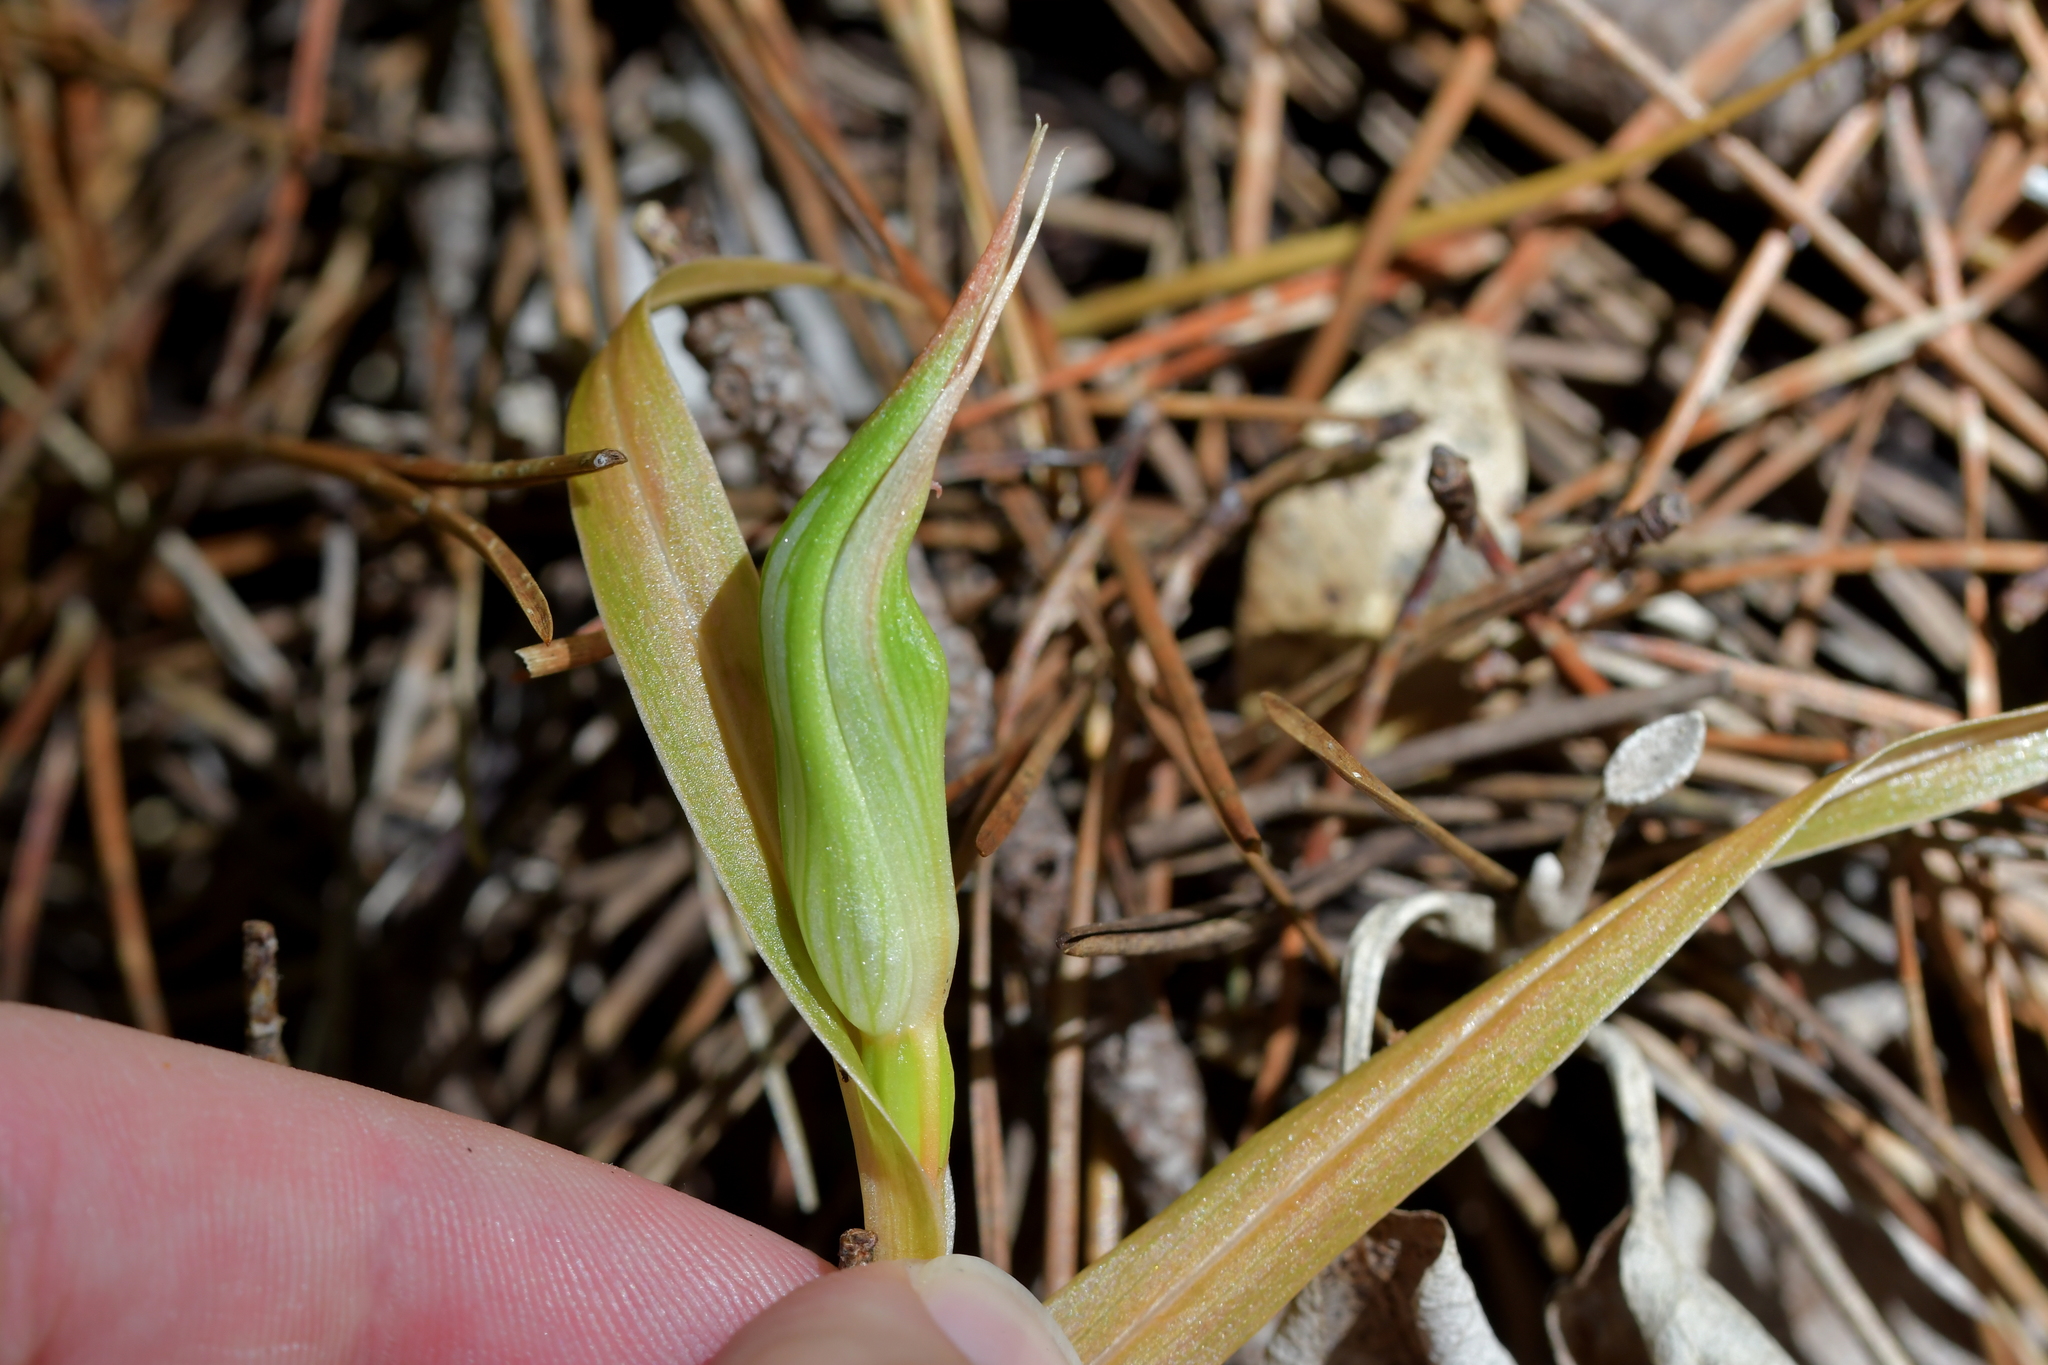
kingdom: Plantae
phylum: Tracheophyta
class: Liliopsida
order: Asparagales
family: Orchidaceae
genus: Pterostylis
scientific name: Pterostylis cardiostigma
